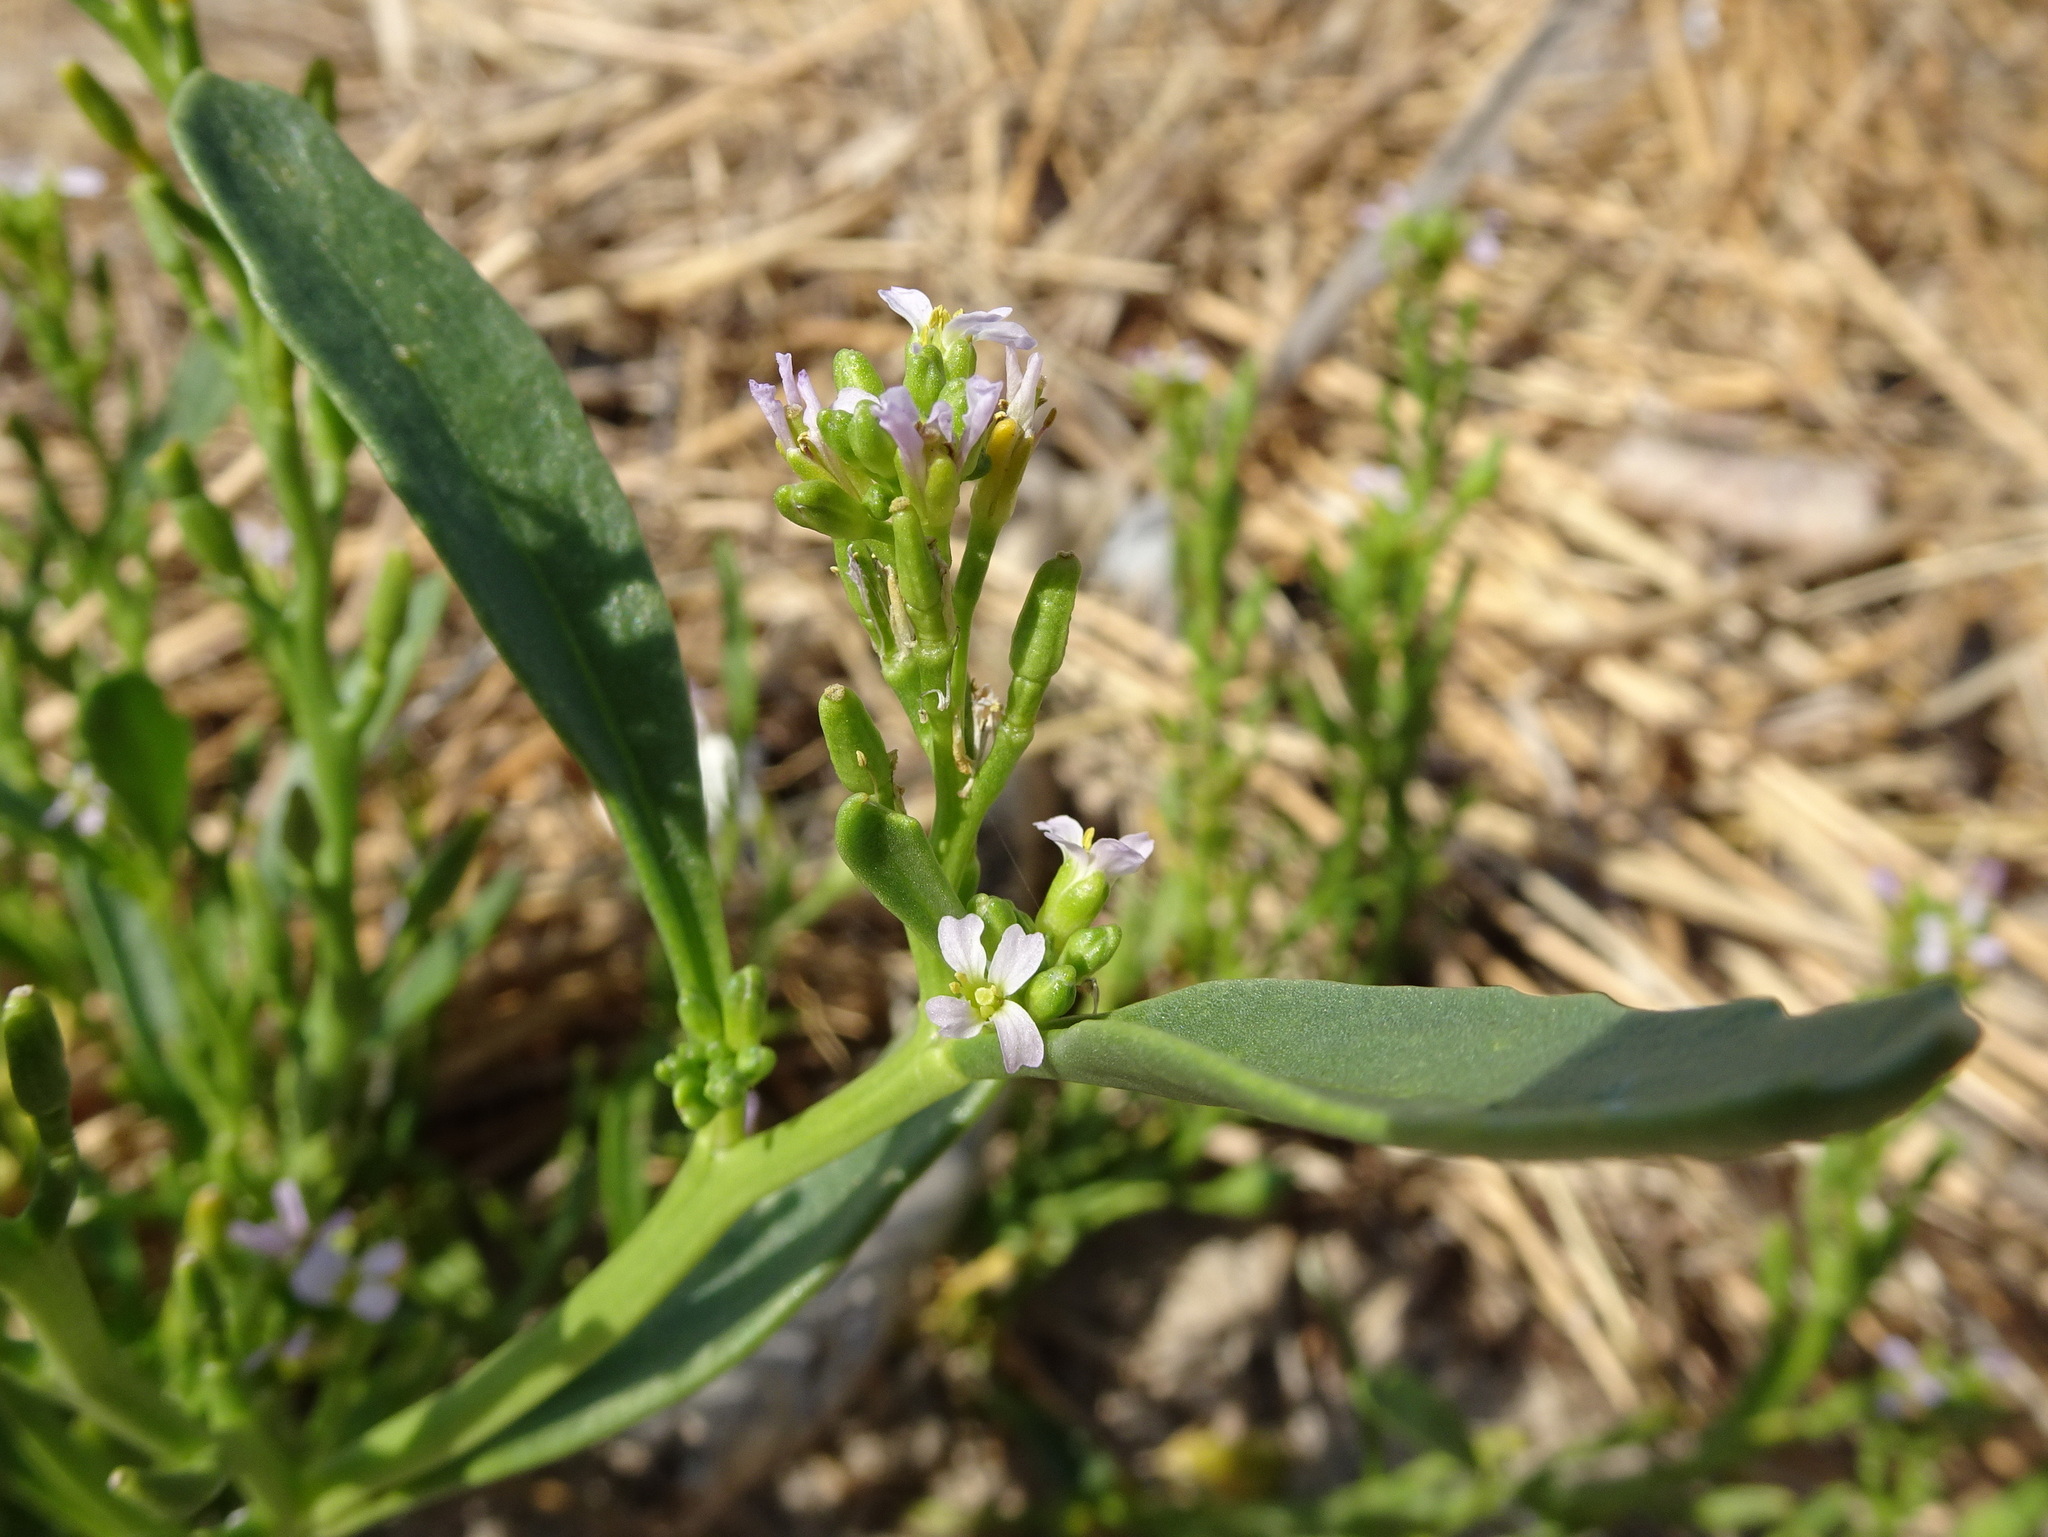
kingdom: Plantae
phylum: Tracheophyta
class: Magnoliopsida
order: Brassicales
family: Brassicaceae
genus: Cakile
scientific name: Cakile edentula
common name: American sea rocket
